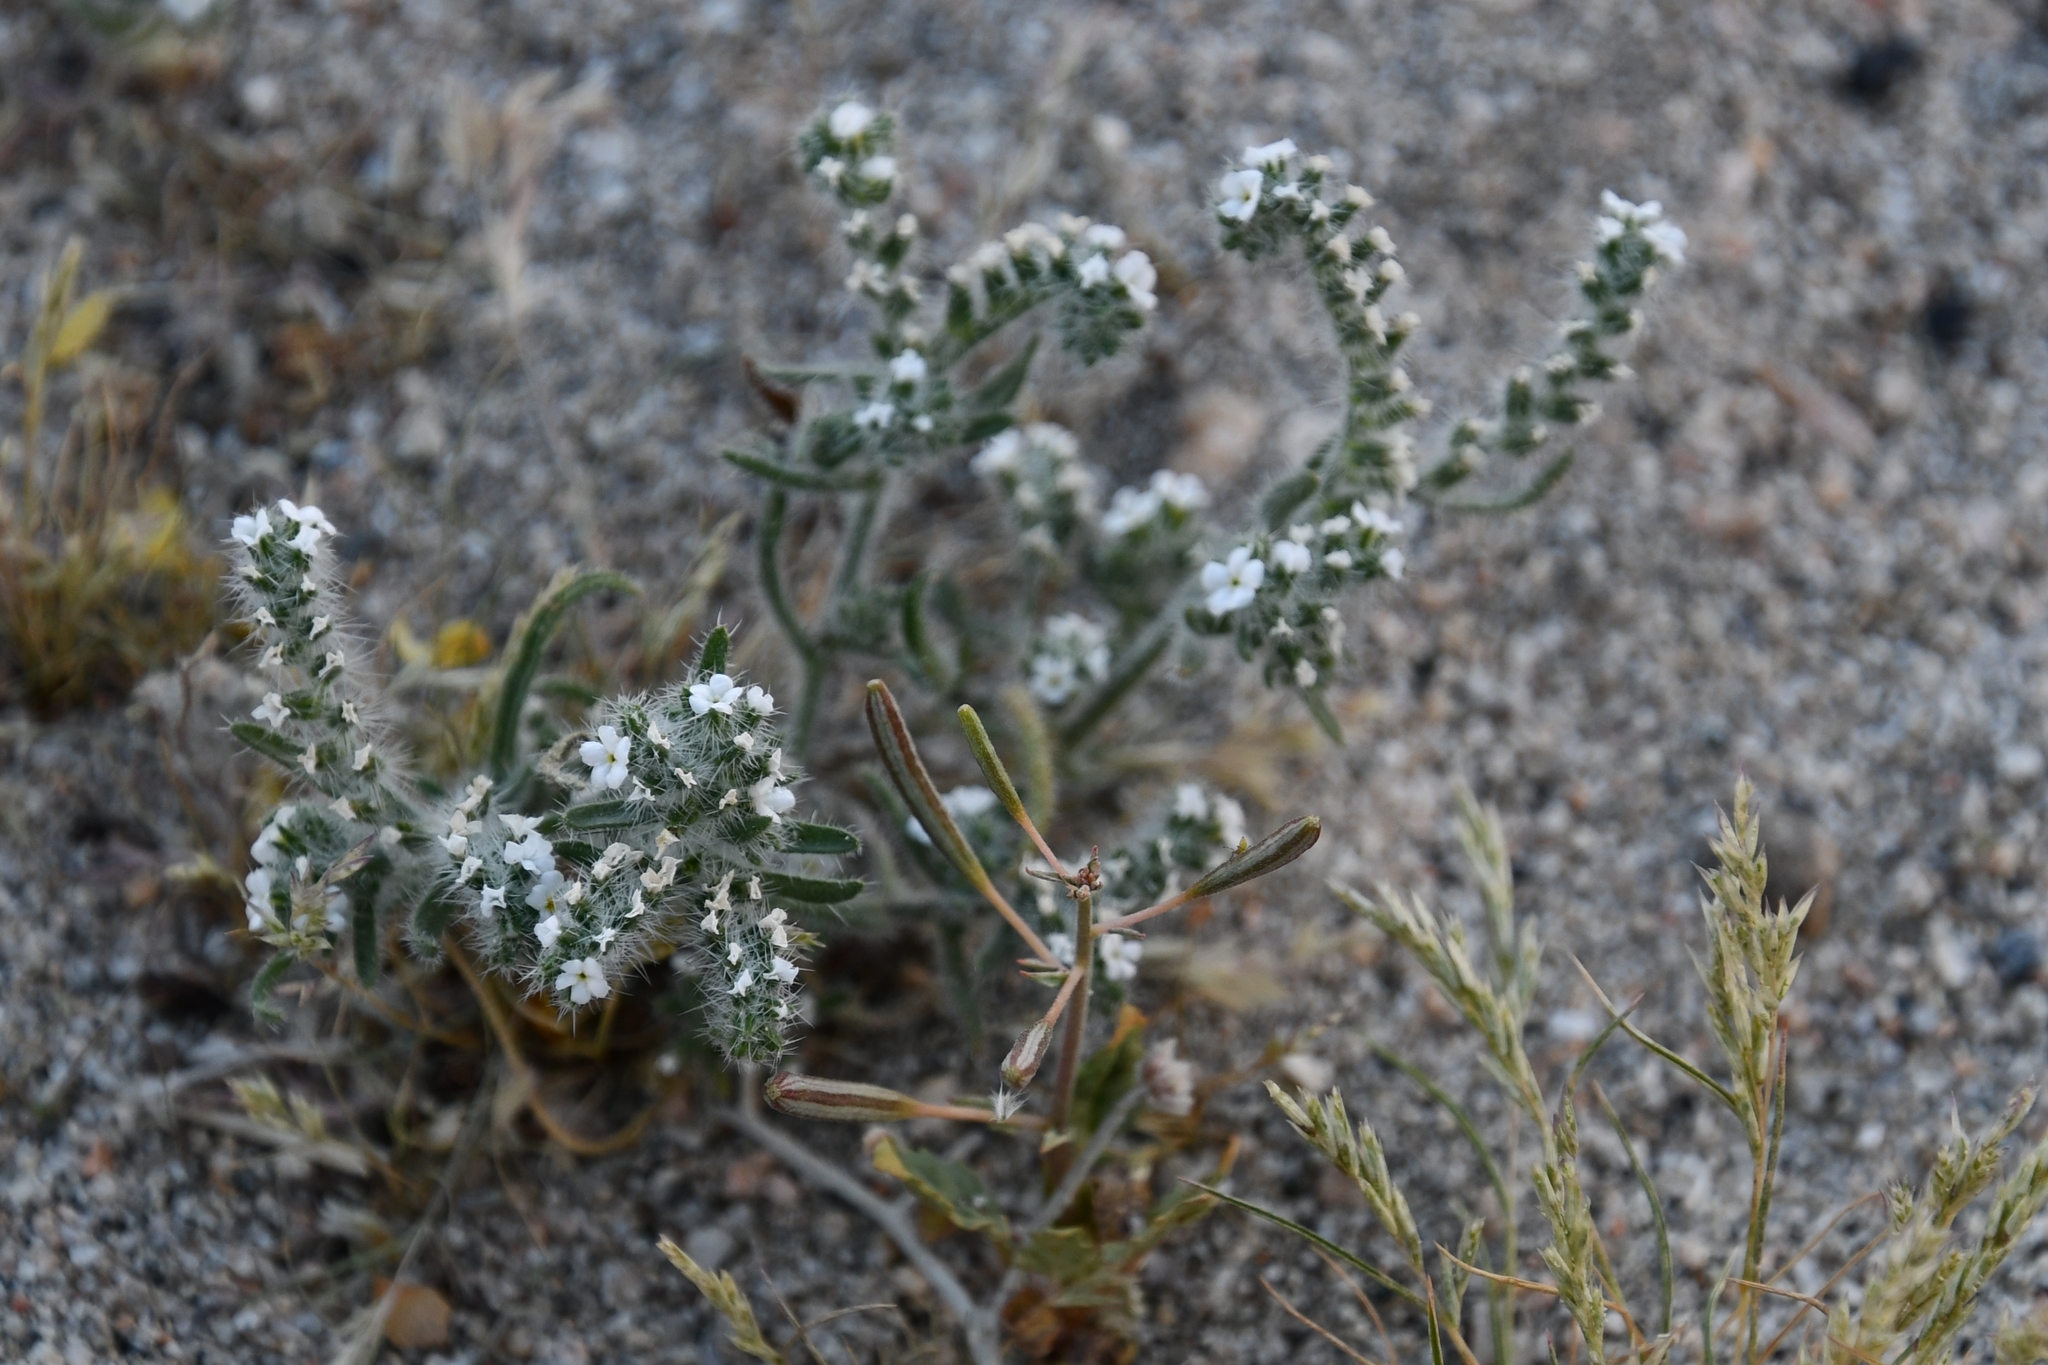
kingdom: Plantae
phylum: Tracheophyta
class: Magnoliopsida
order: Boraginales
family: Boraginaceae
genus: Johnstonella
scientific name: Johnstonella angustifolia
